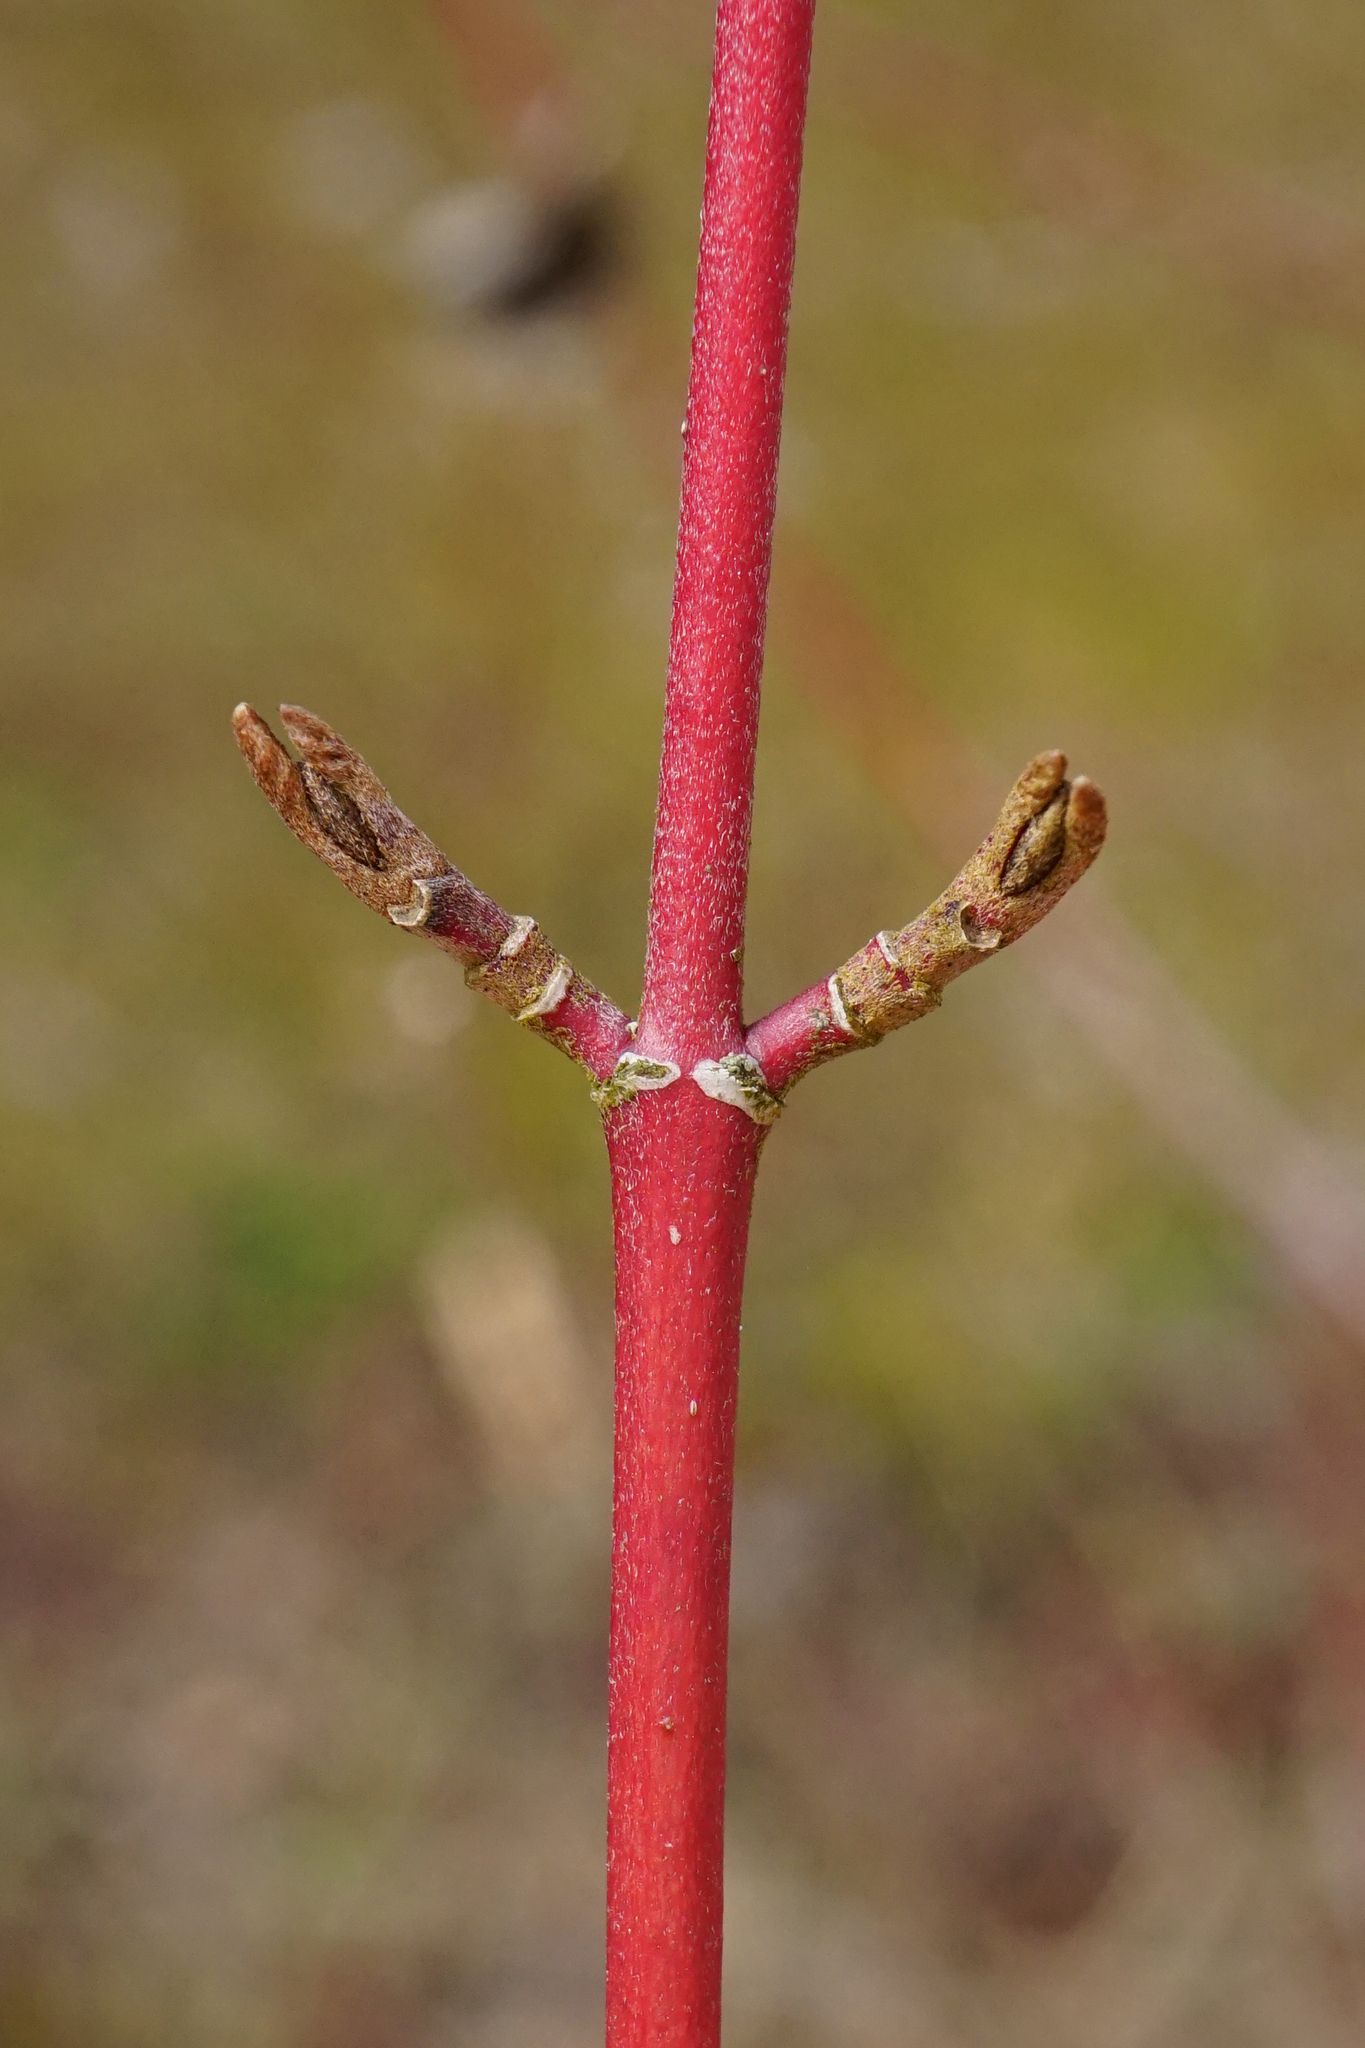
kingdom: Plantae
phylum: Tracheophyta
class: Magnoliopsida
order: Cornales
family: Cornaceae
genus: Cornus
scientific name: Cornus sanguinea
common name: Dogwood
